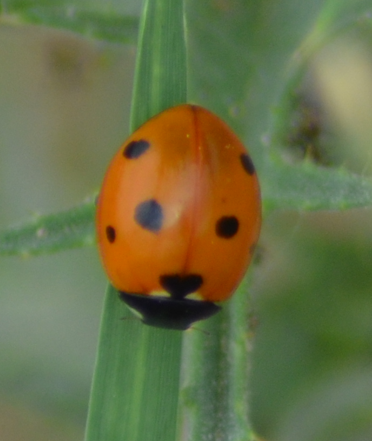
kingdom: Animalia
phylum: Arthropoda
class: Insecta
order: Coleoptera
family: Coccinellidae
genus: Coccinella
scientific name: Coccinella septempunctata
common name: Sevenspotted lady beetle
